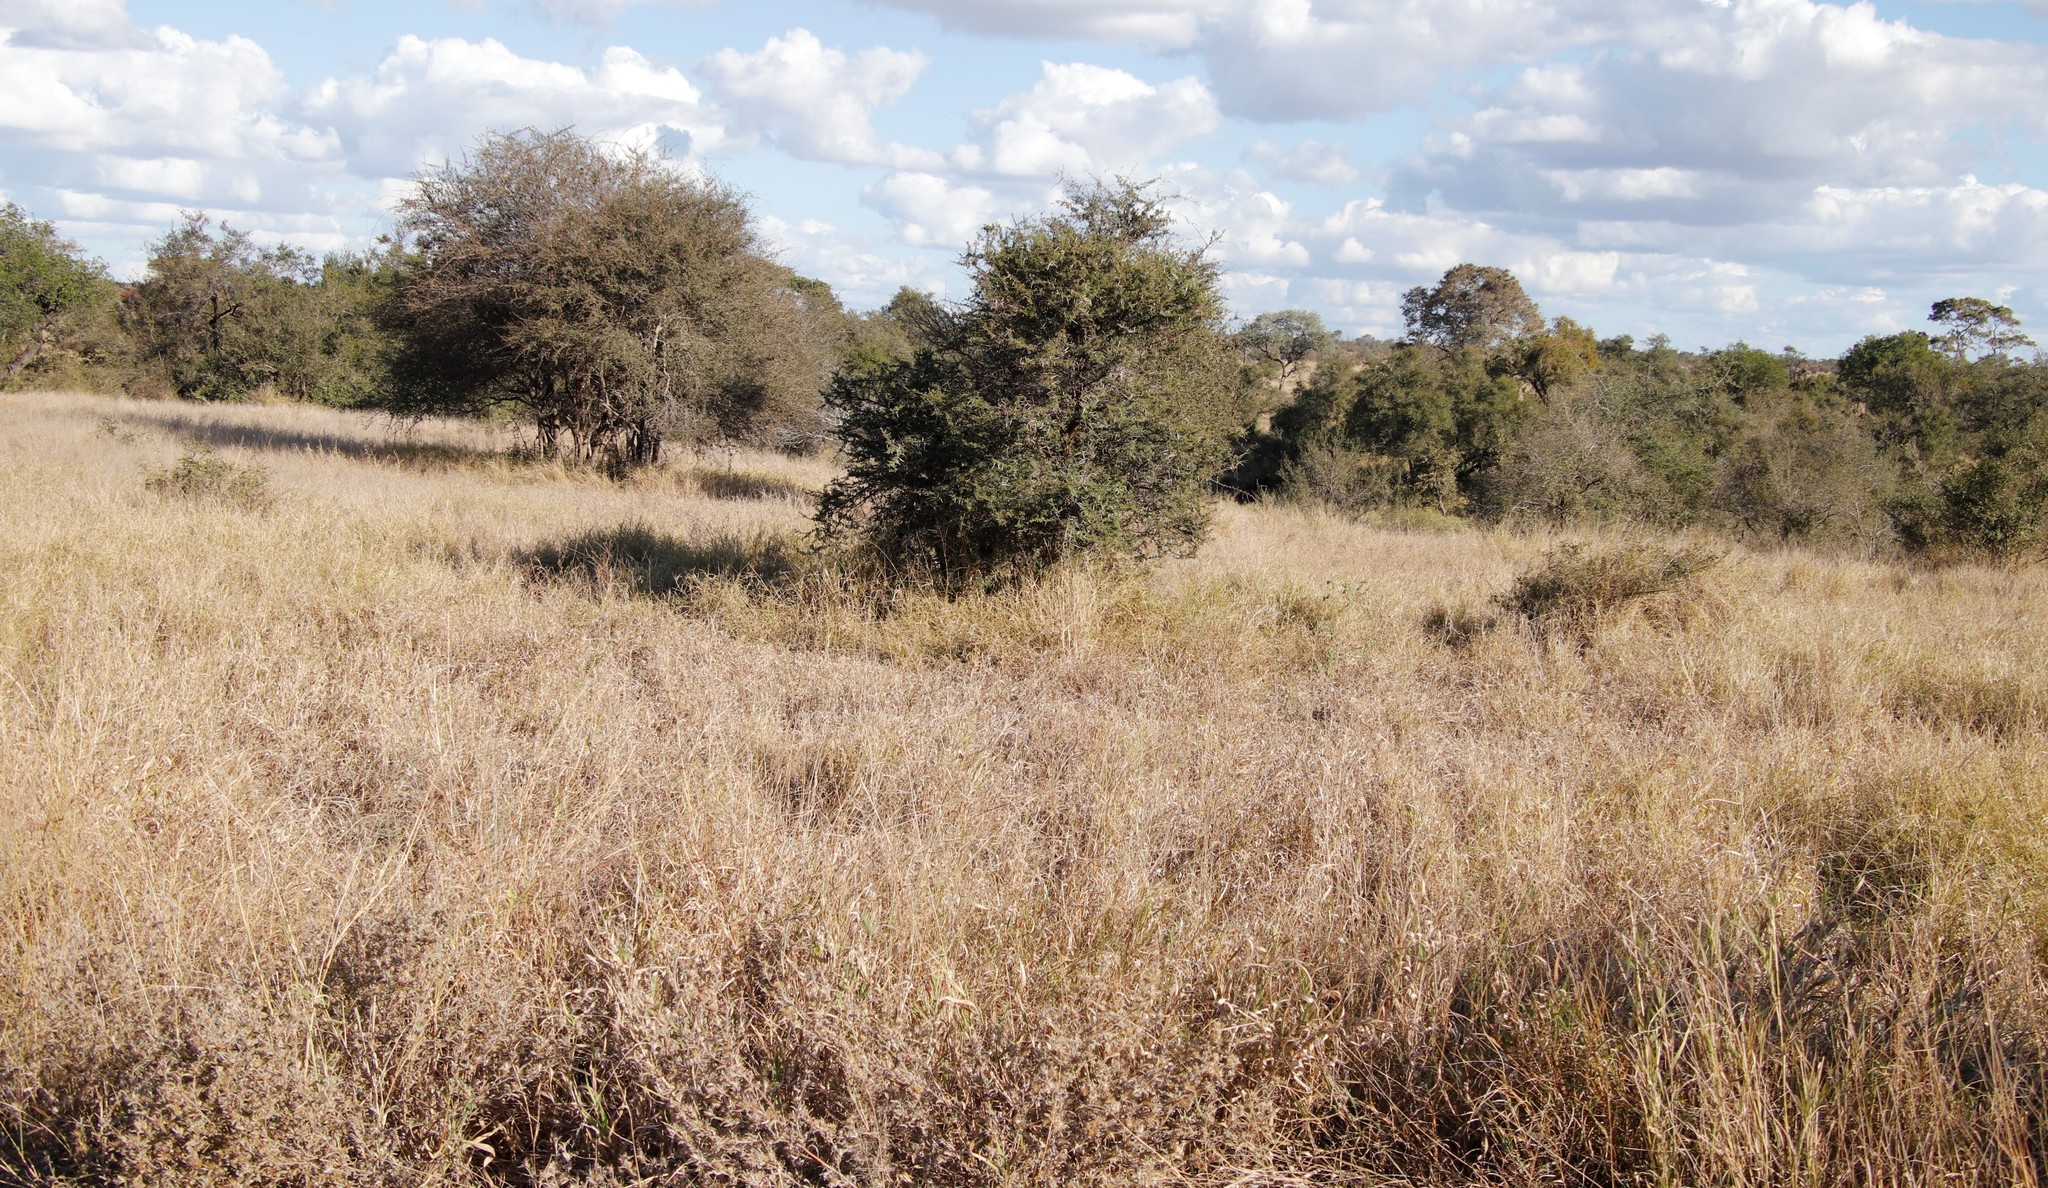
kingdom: Plantae
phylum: Tracheophyta
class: Magnoliopsida
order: Fabales
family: Fabaceae
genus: Vachellia
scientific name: Vachellia tortilis
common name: Umbrella thorn acacia
